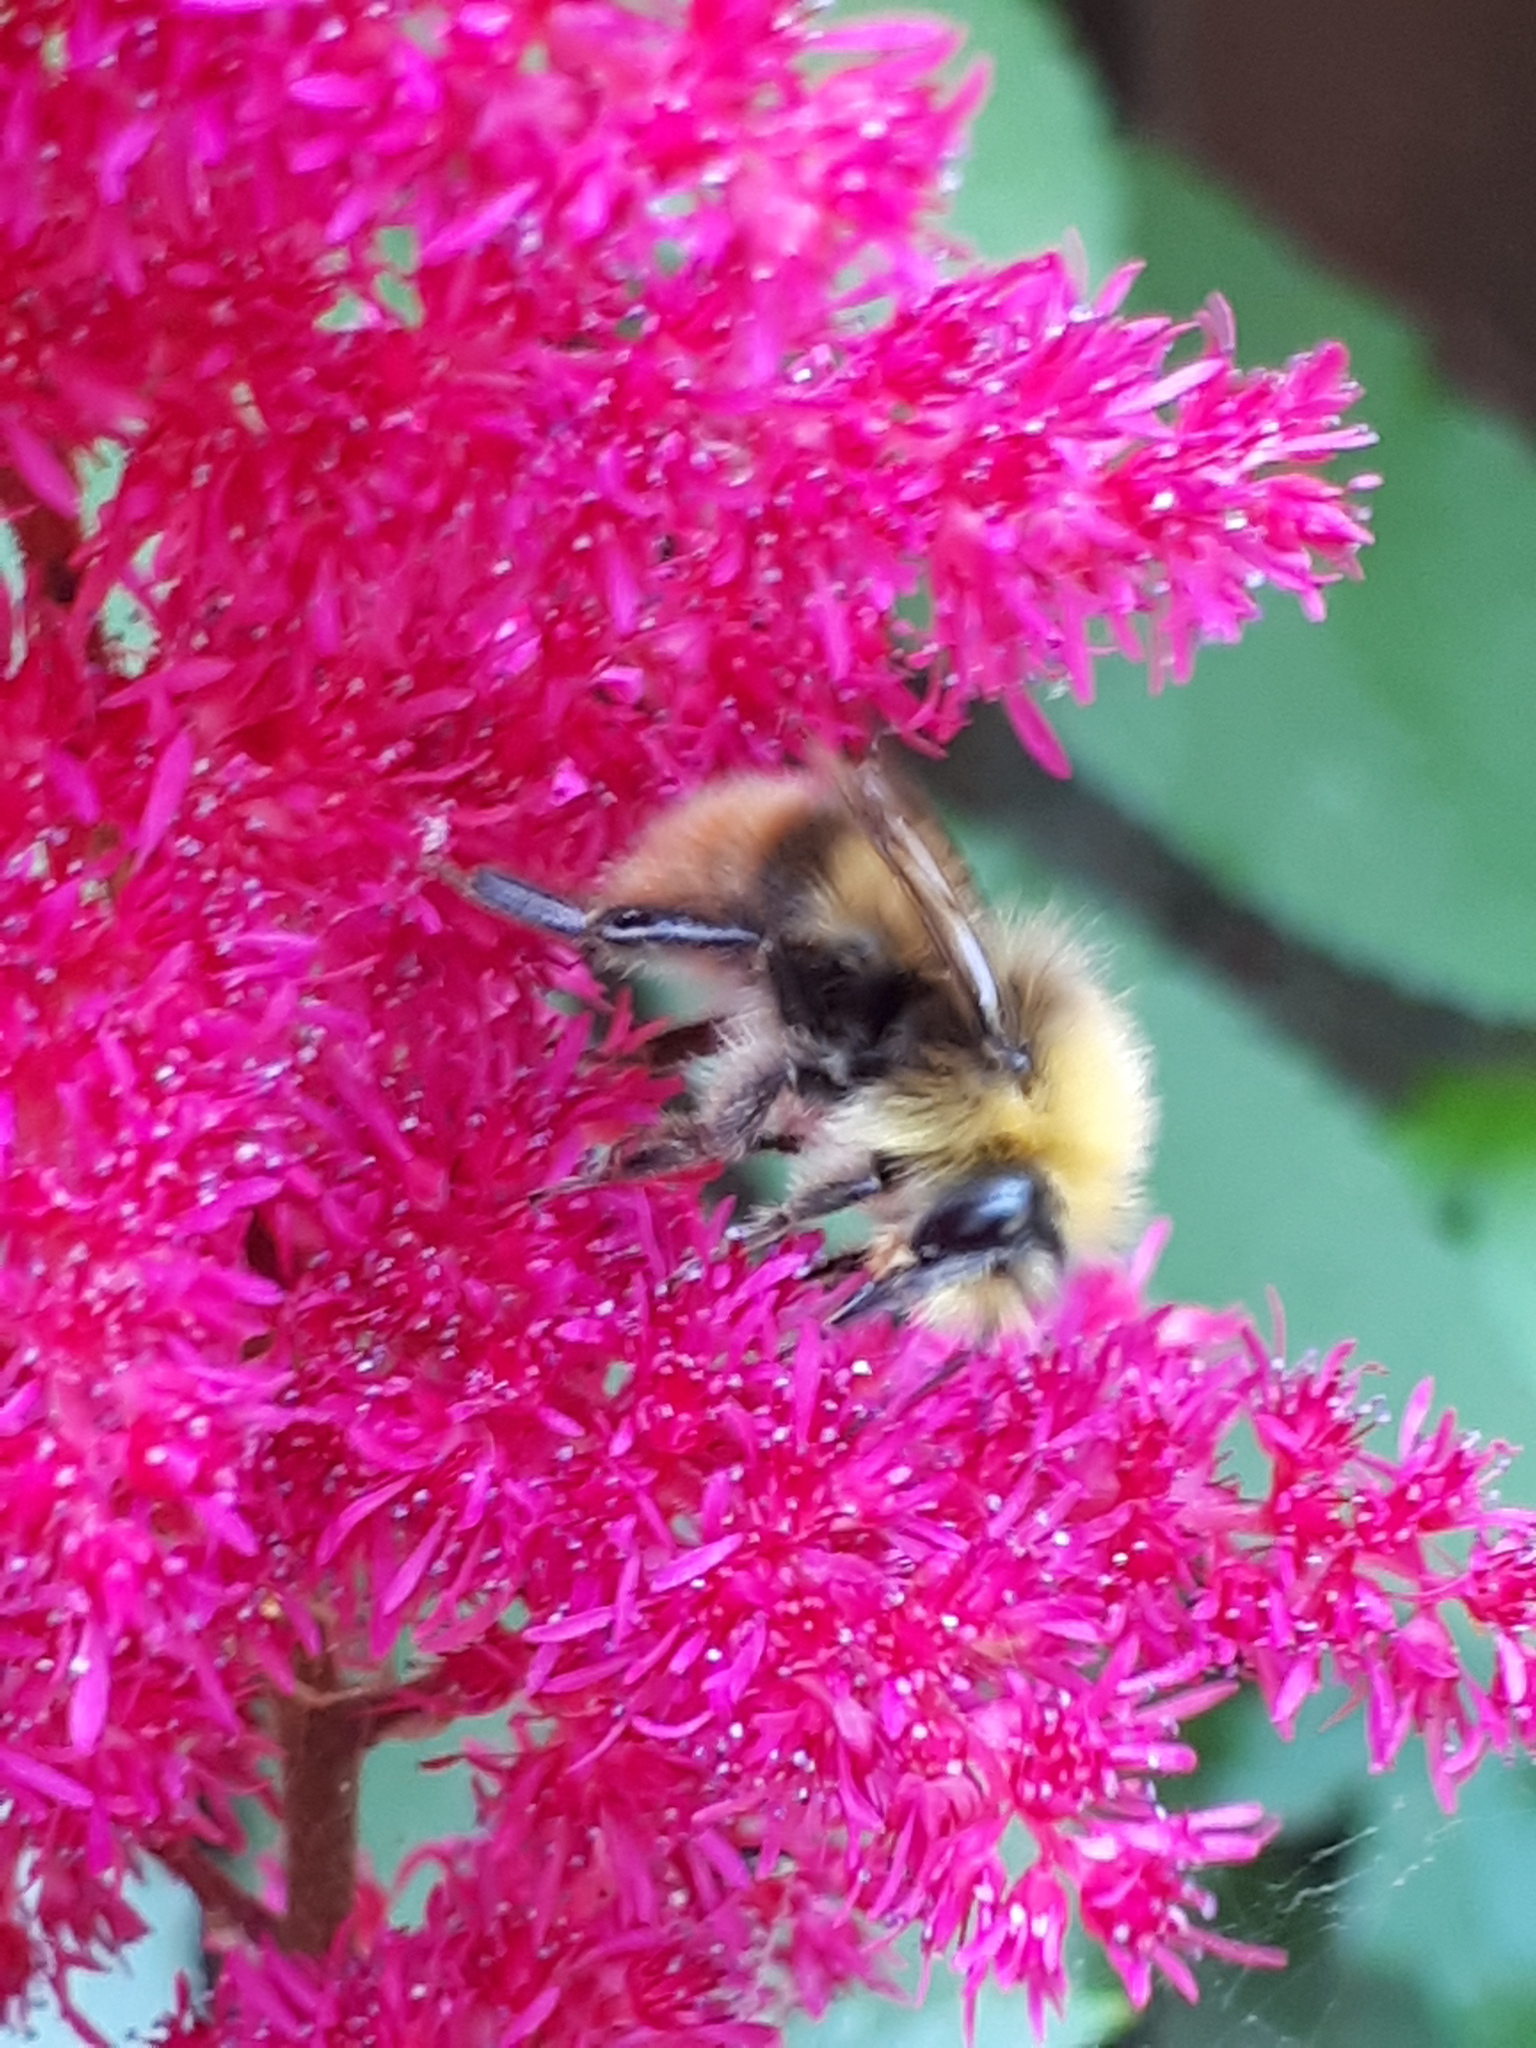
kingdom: Animalia
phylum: Arthropoda
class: Insecta
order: Hymenoptera
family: Apidae
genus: Bombus
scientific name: Bombus pratorum
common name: Early humble-bee
